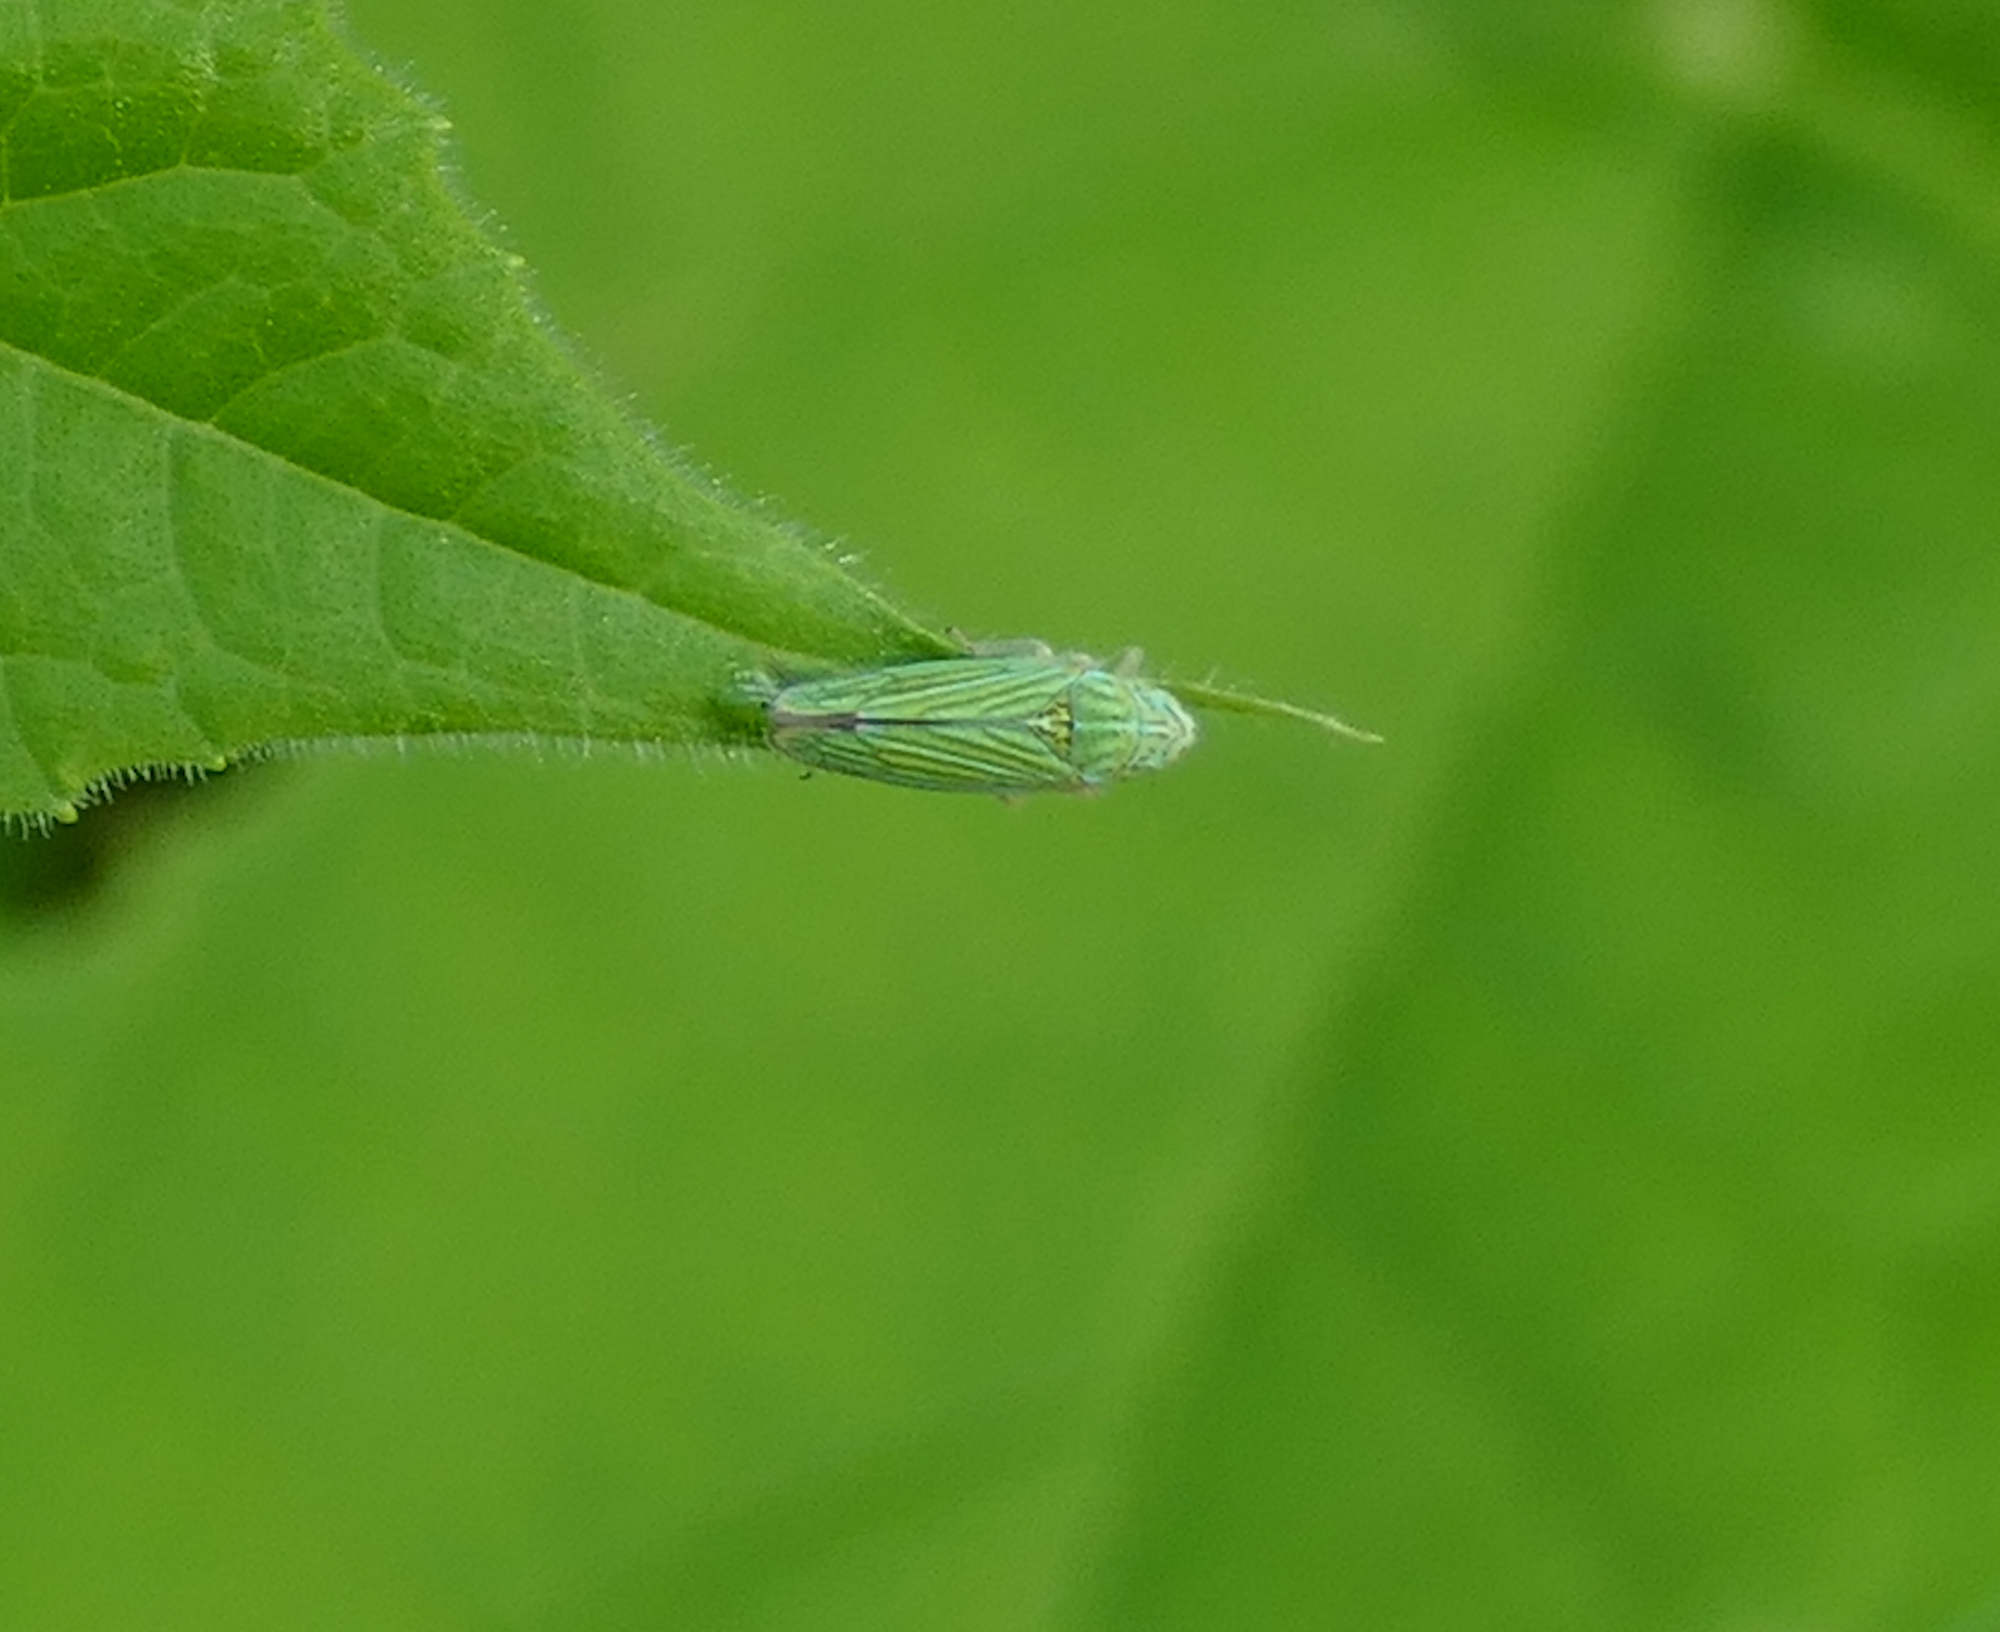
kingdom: Animalia
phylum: Arthropoda
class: Insecta
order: Hemiptera
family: Cicadellidae
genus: Graphocephala
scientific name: Graphocephala cythura
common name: Leafhopper
